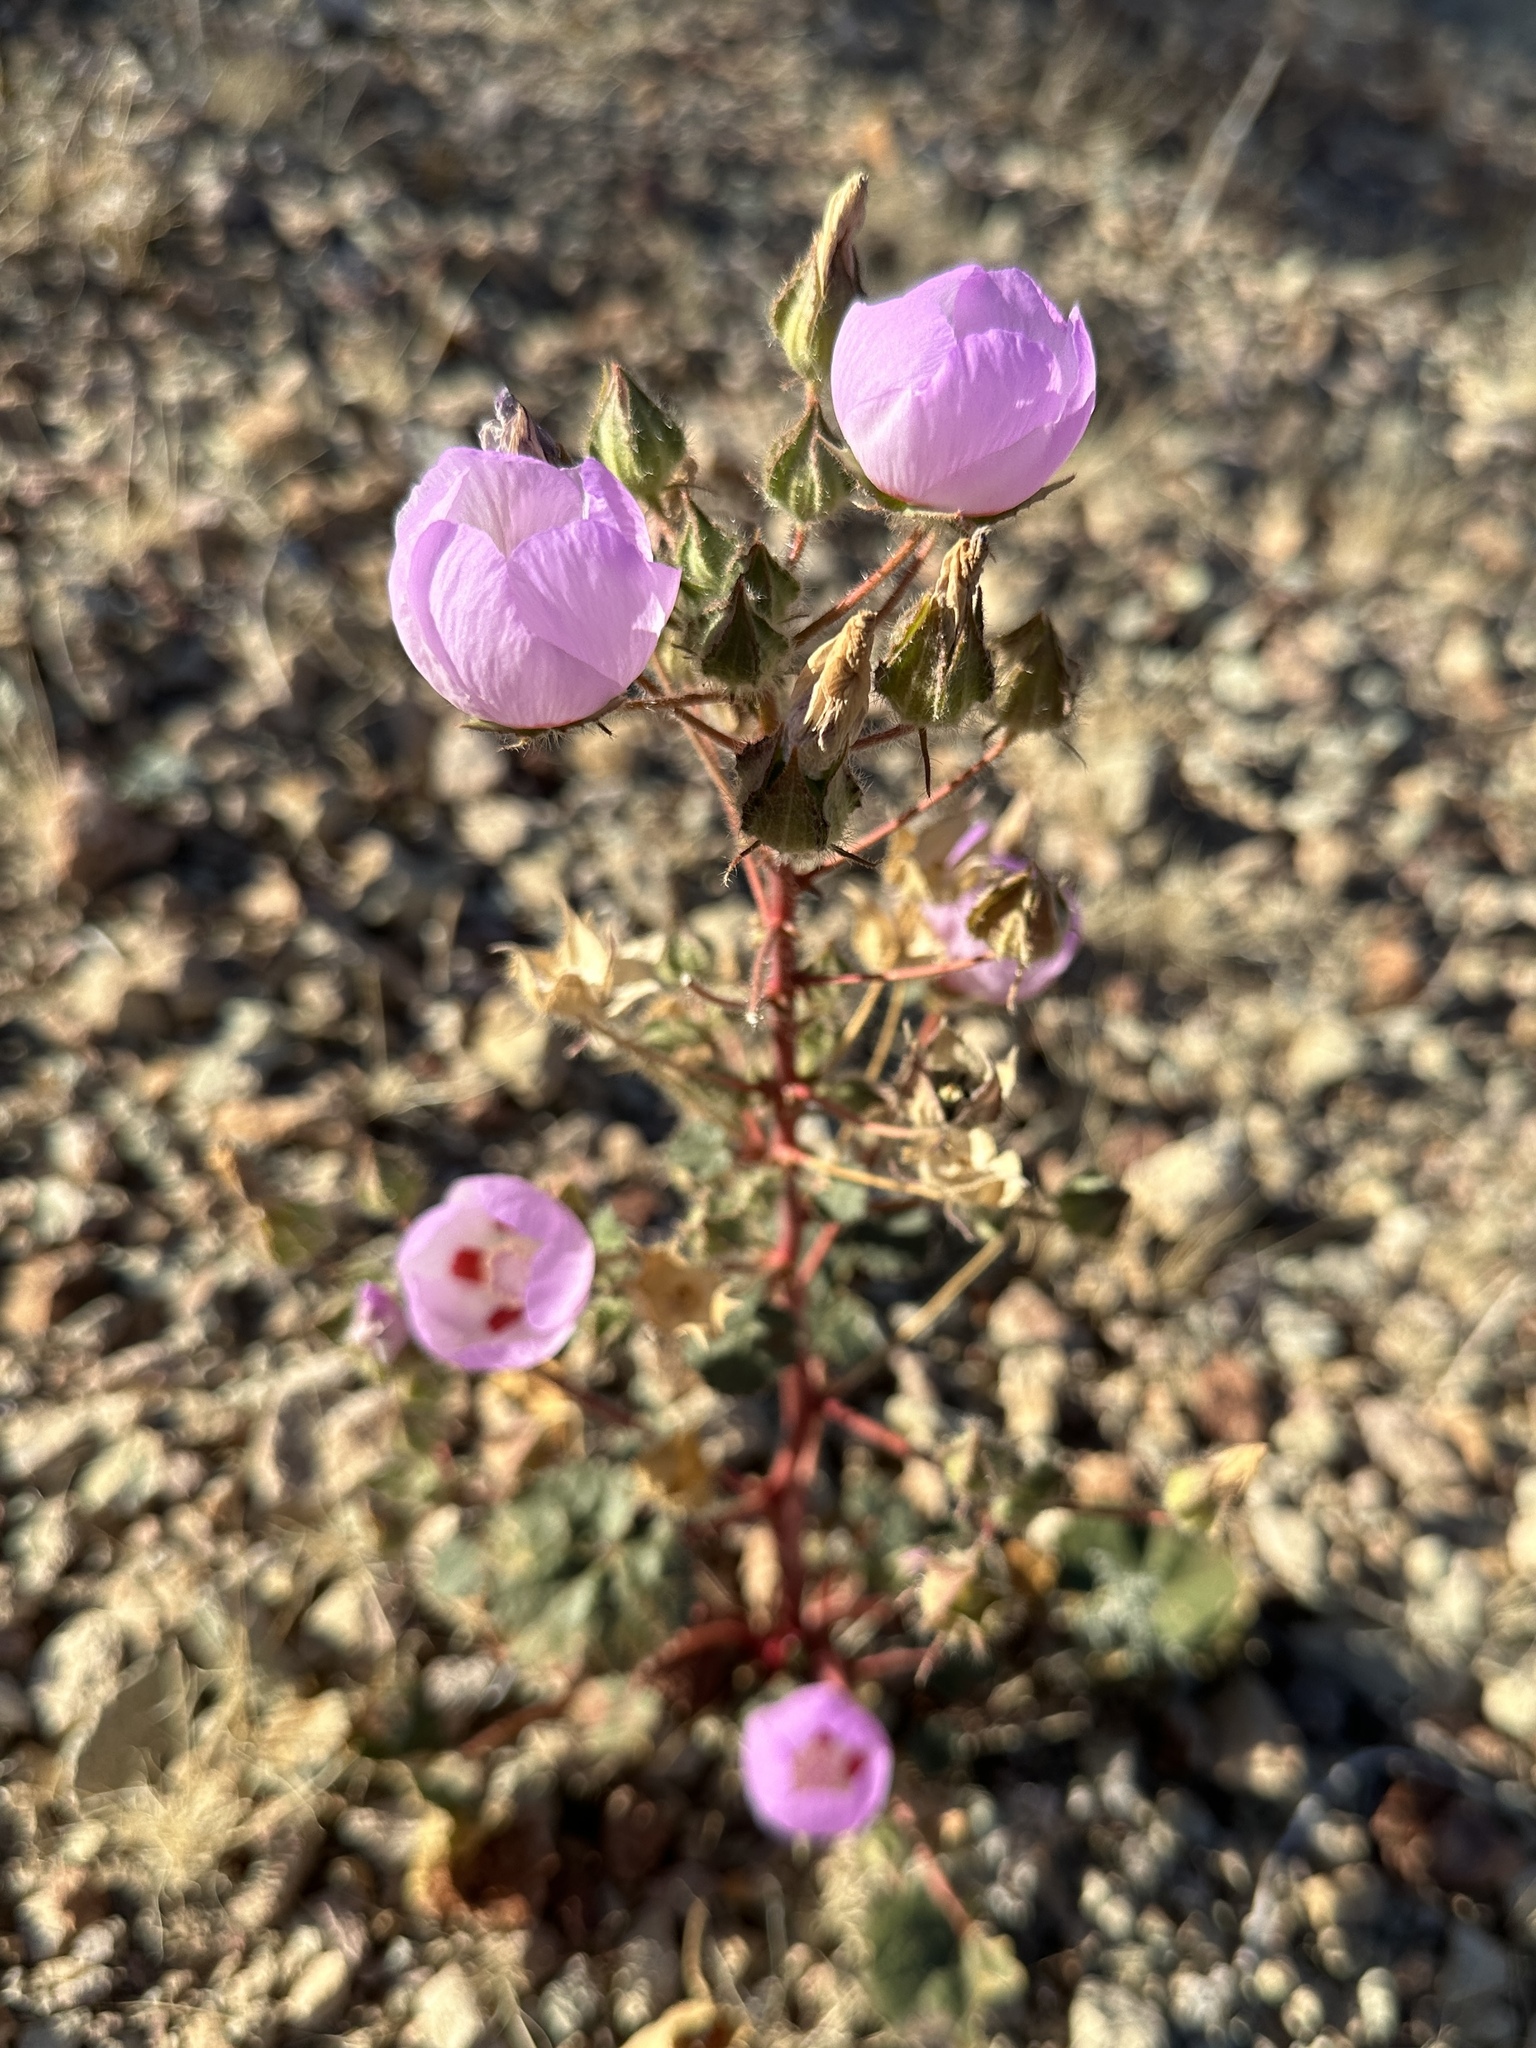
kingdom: Plantae
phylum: Tracheophyta
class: Magnoliopsida
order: Malvales
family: Malvaceae
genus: Eremalche
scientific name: Eremalche rotundifolia
